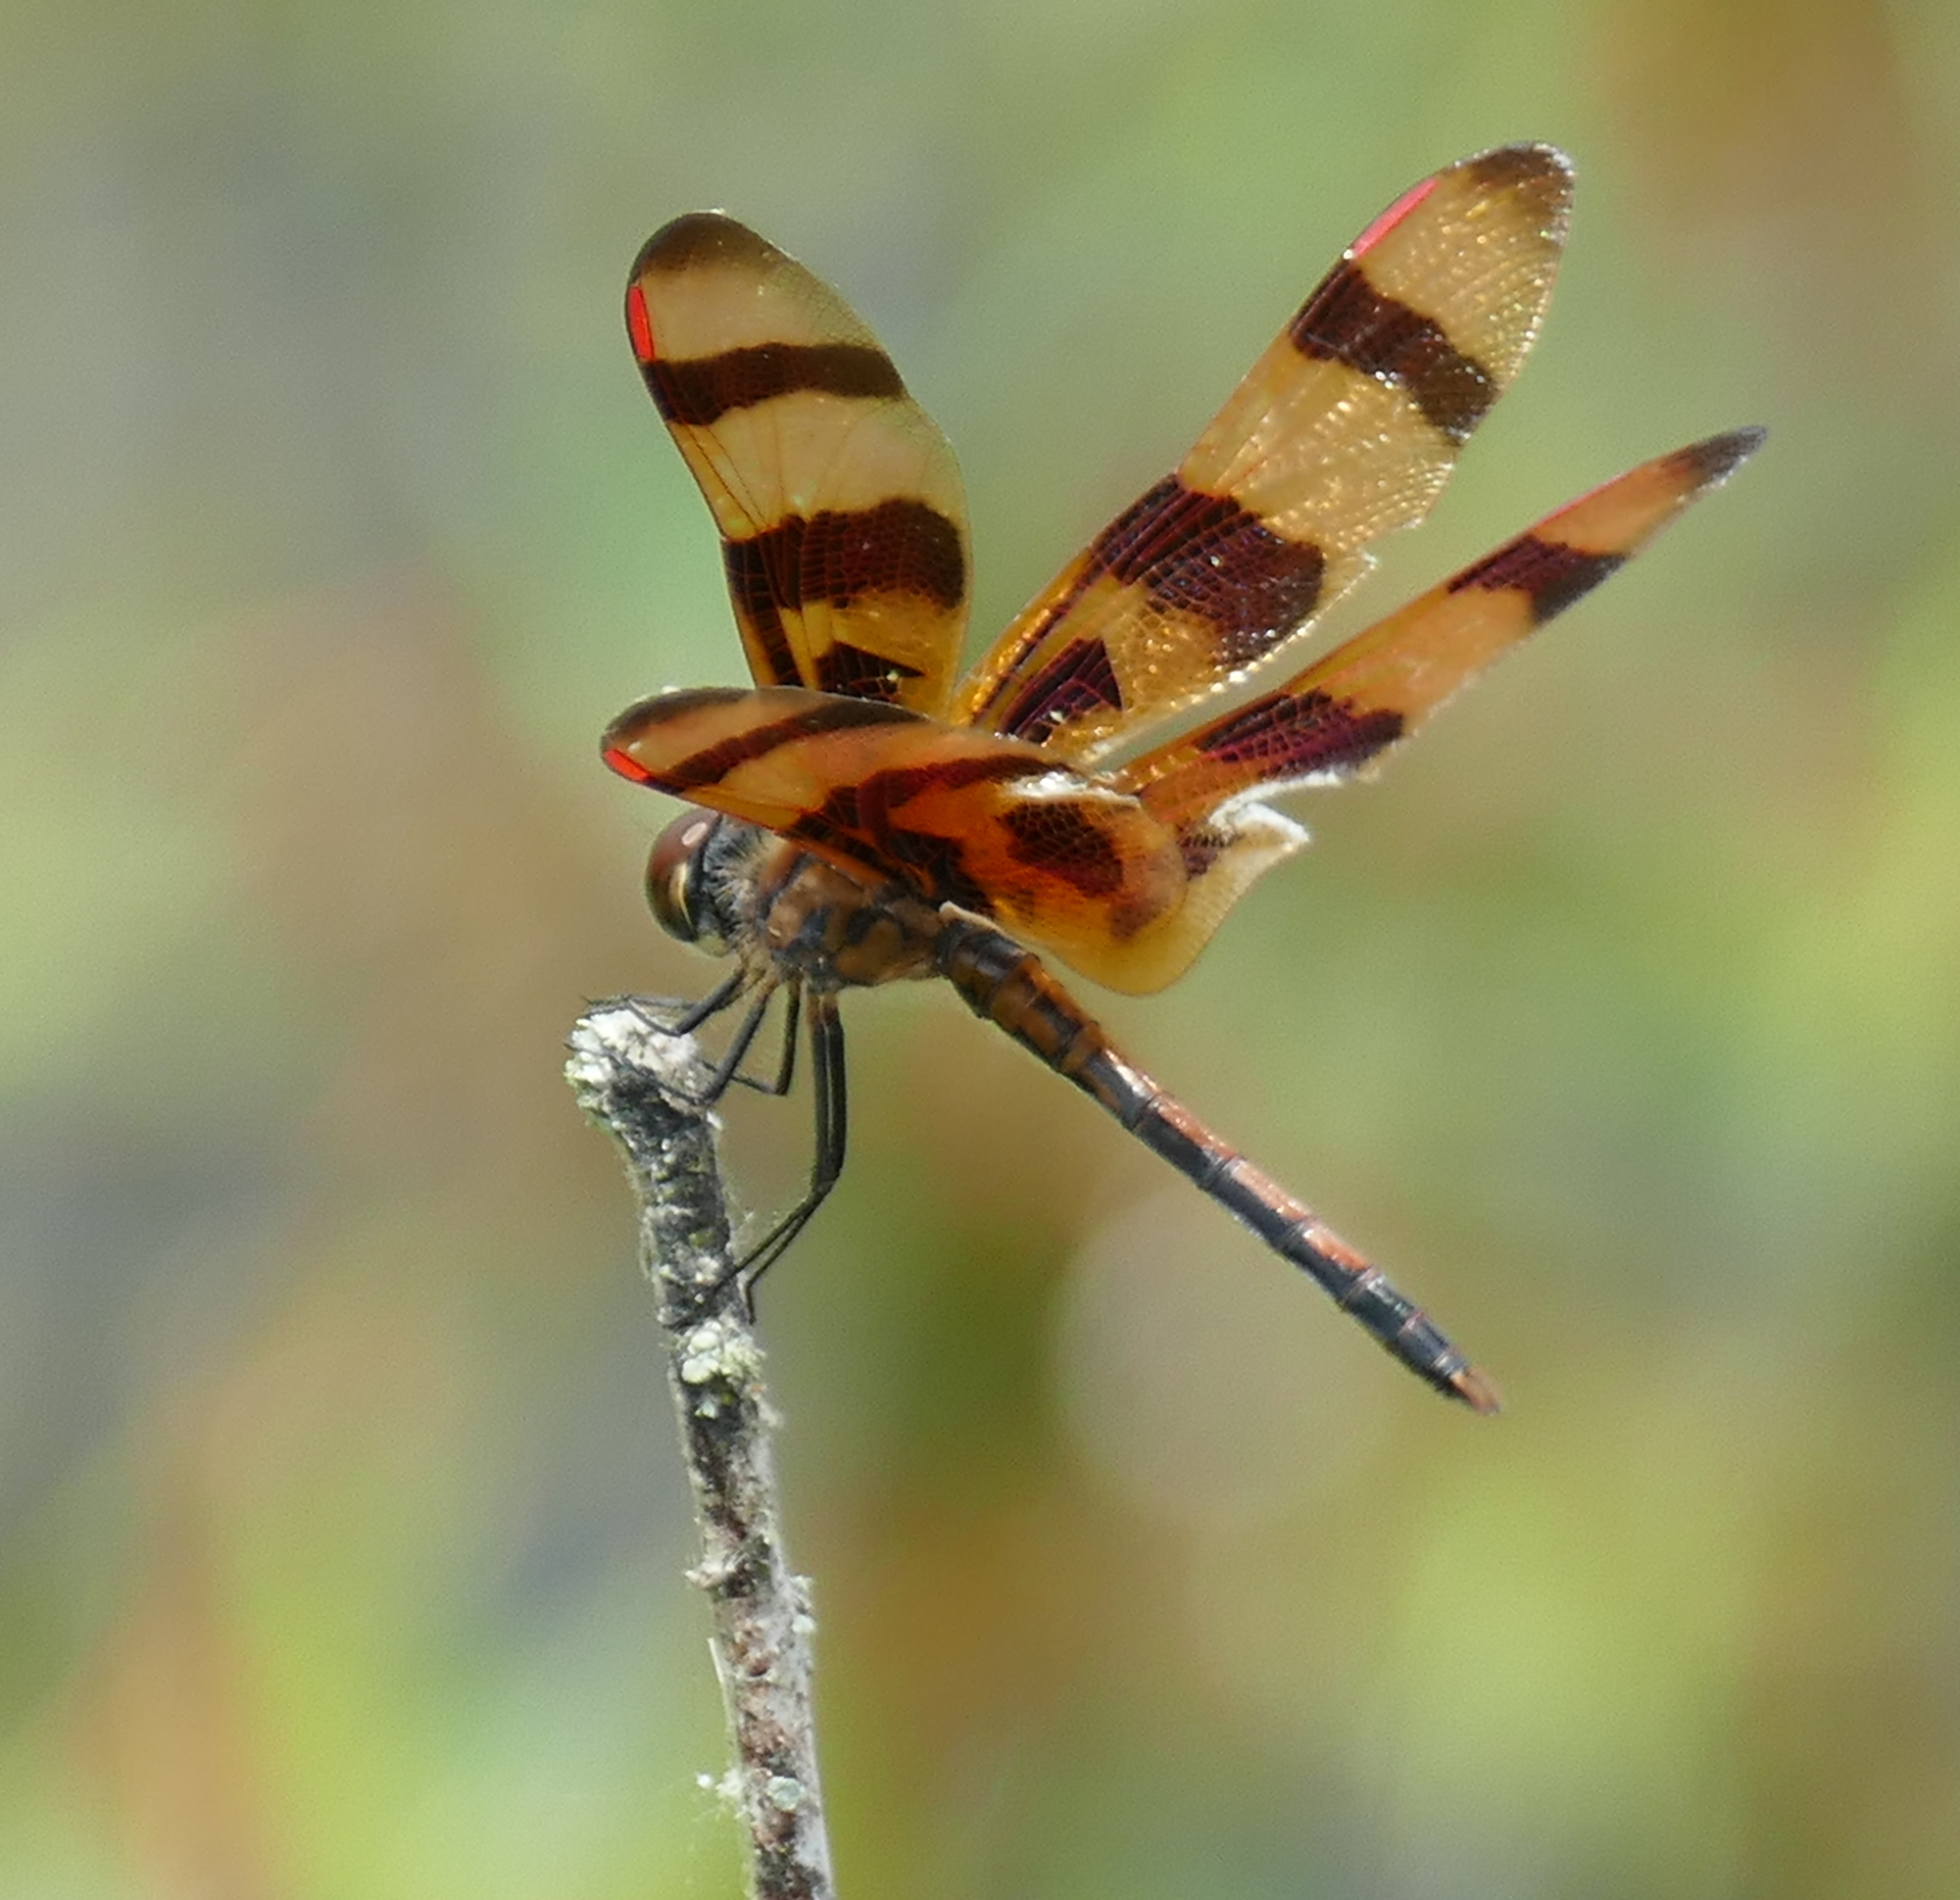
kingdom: Animalia
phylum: Arthropoda
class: Insecta
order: Odonata
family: Libellulidae
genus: Celithemis
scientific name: Celithemis eponina
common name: Halloween pennant
